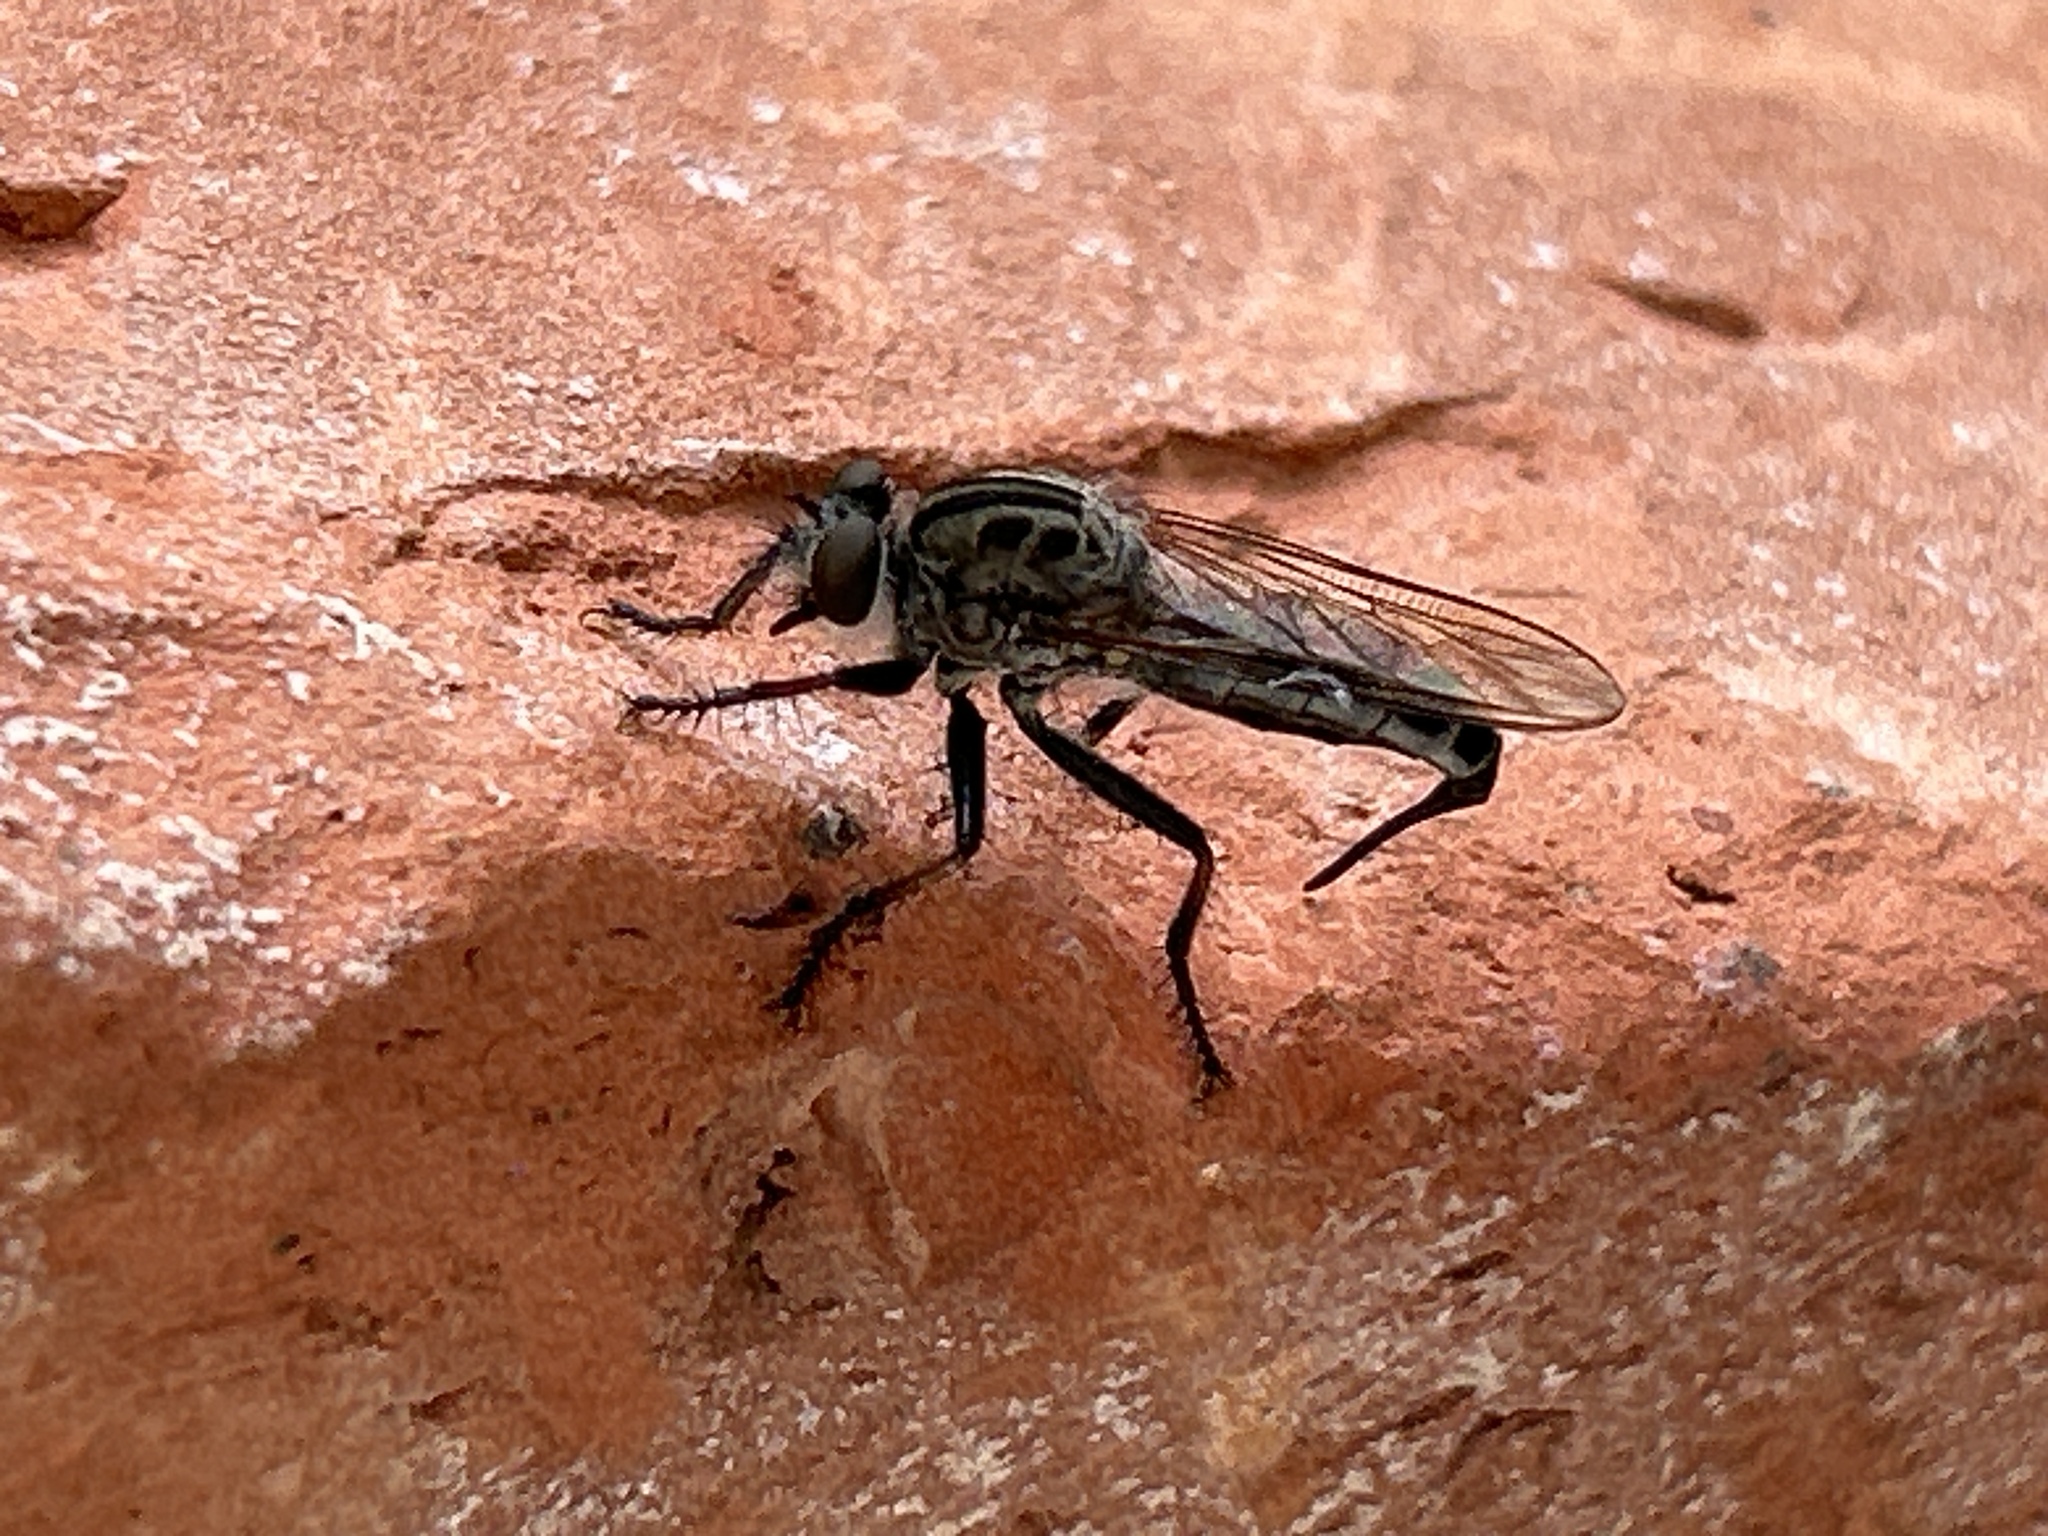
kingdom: Animalia
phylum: Arthropoda
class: Insecta
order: Diptera
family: Asilidae
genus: Efferia
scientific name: Efferia aestuans
